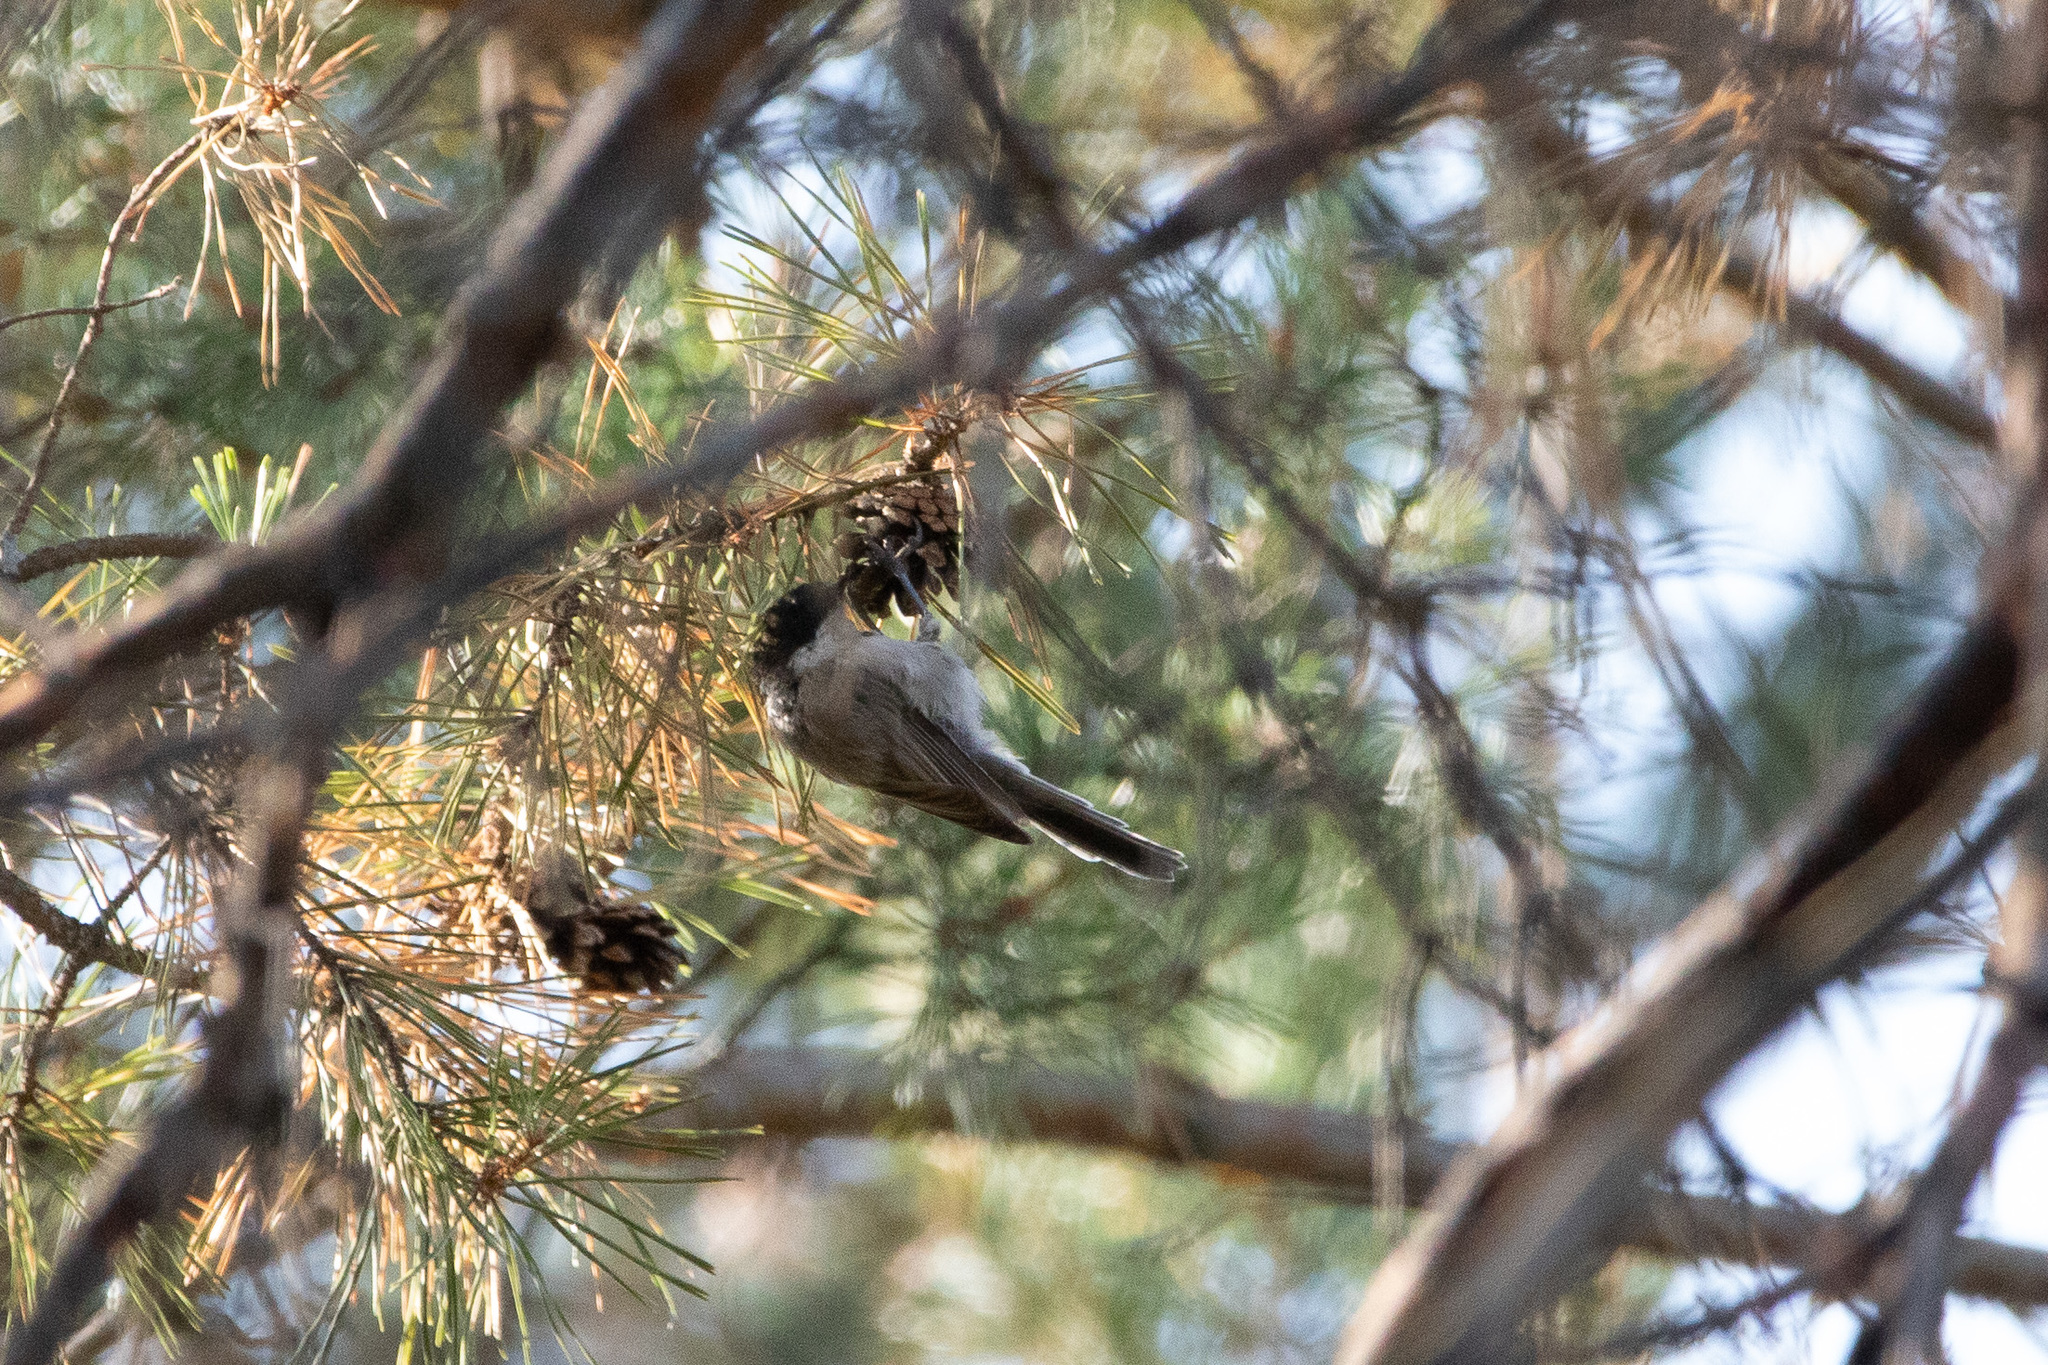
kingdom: Animalia
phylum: Chordata
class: Aves
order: Passeriformes
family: Paridae
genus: Poecile
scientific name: Poecile montanus
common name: Willow tit
